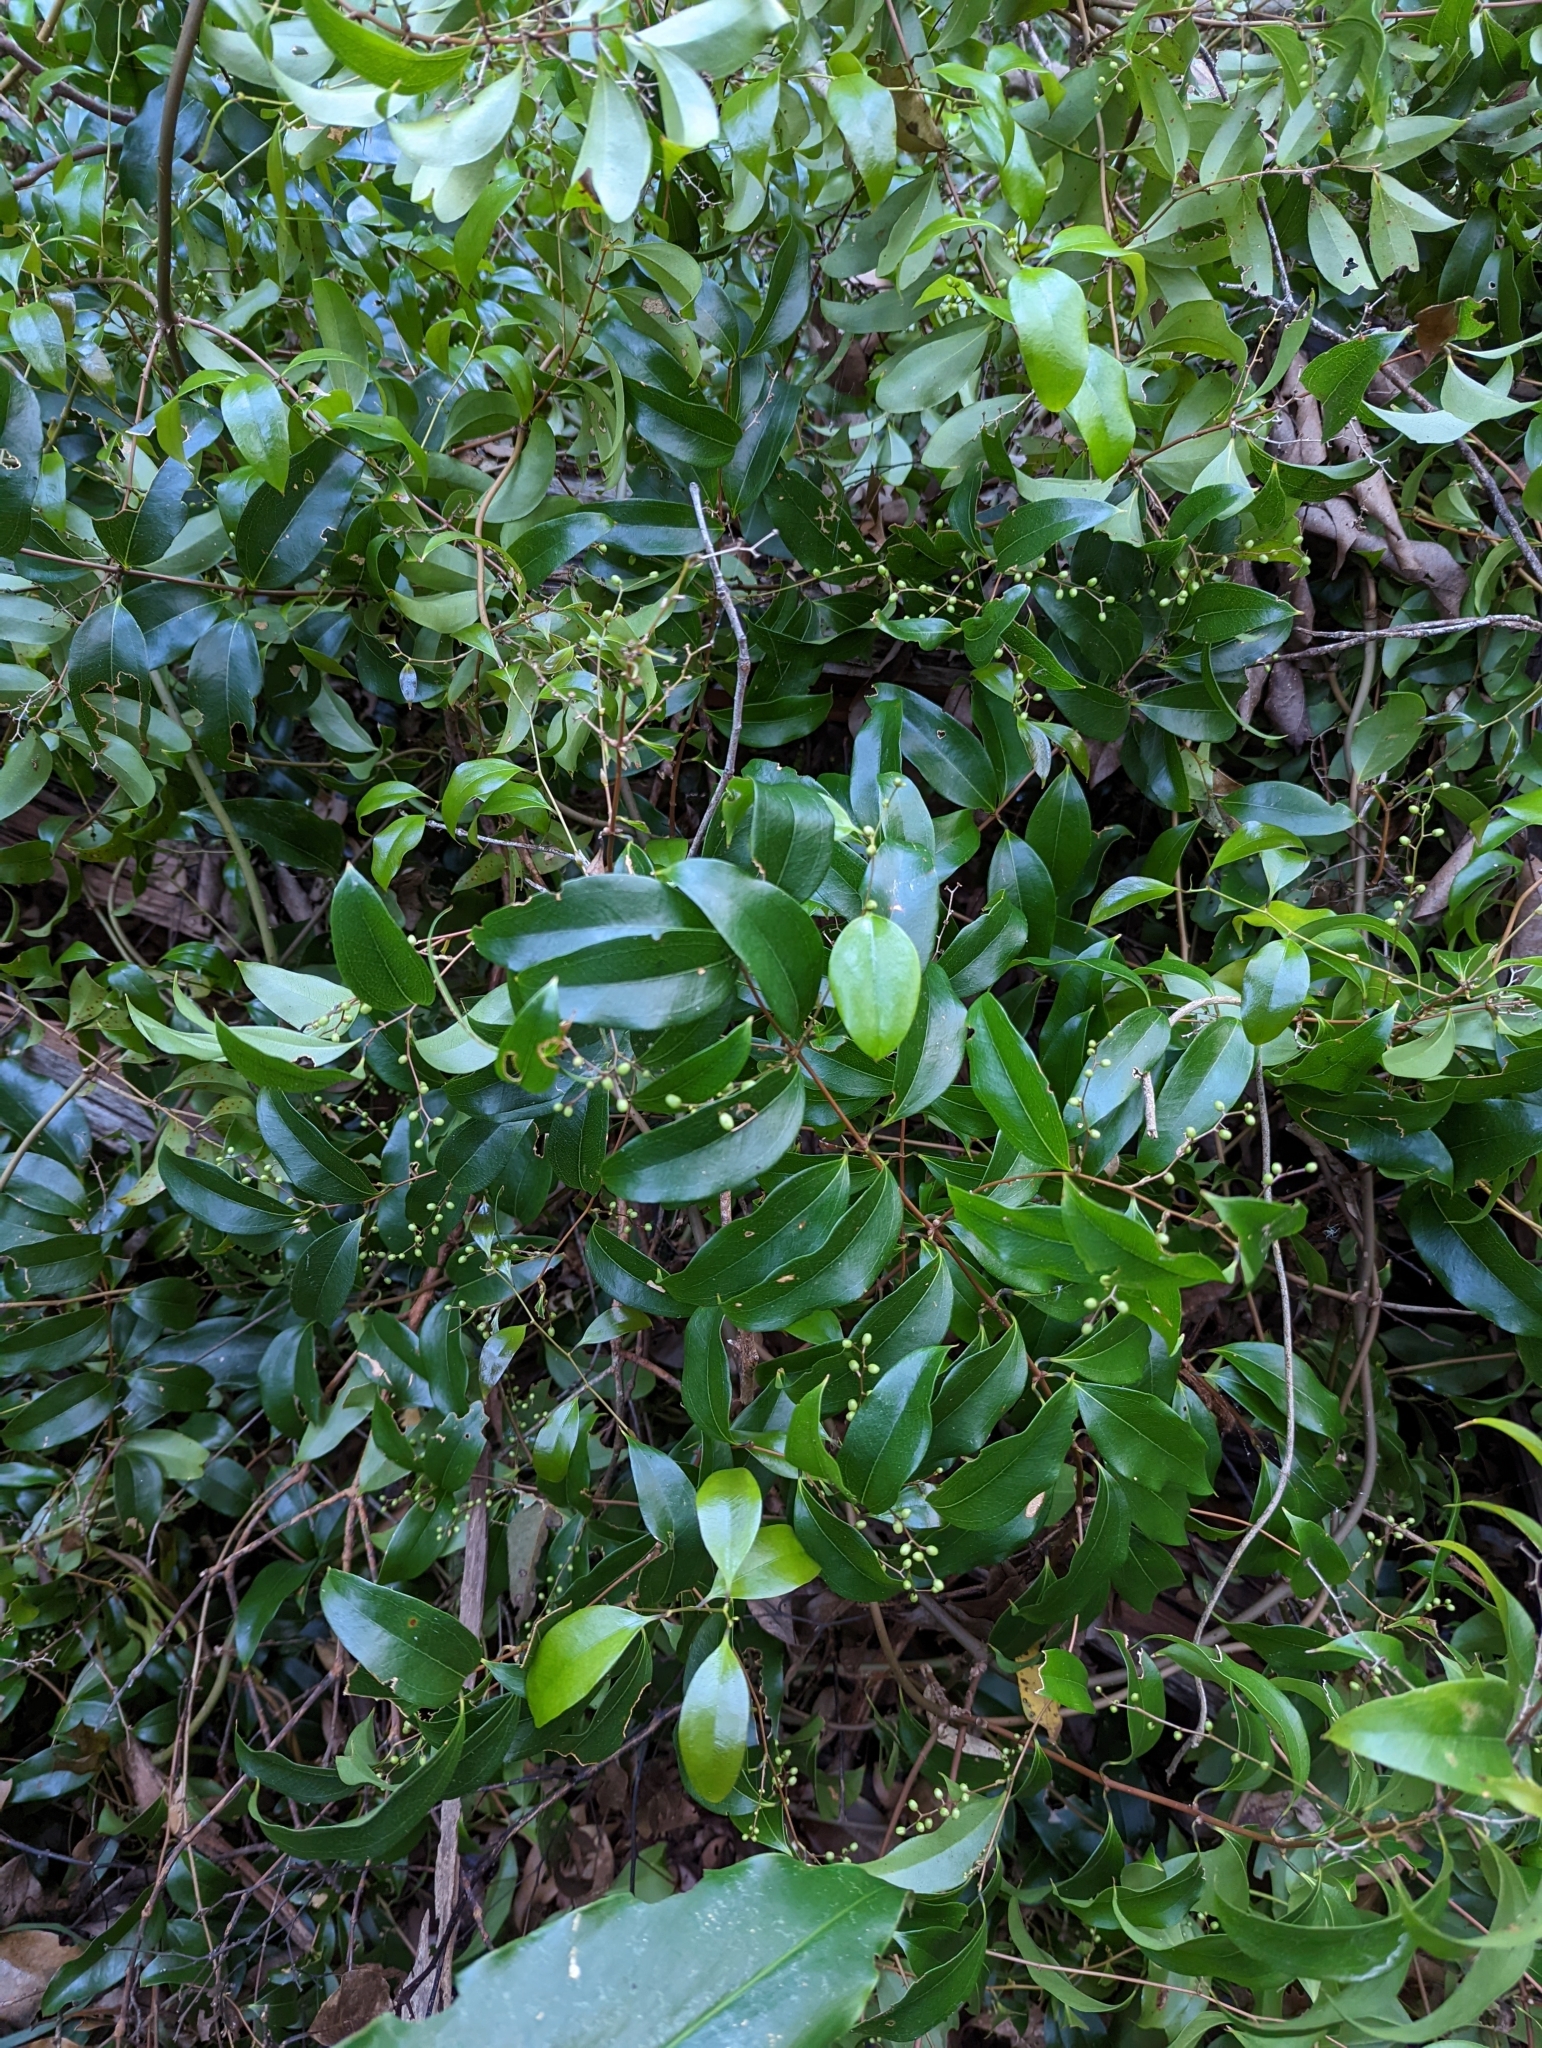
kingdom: Plantae
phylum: Tracheophyta
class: Liliopsida
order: Liliales
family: Ripogonaceae
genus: Ripogonum
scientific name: Ripogonum album
